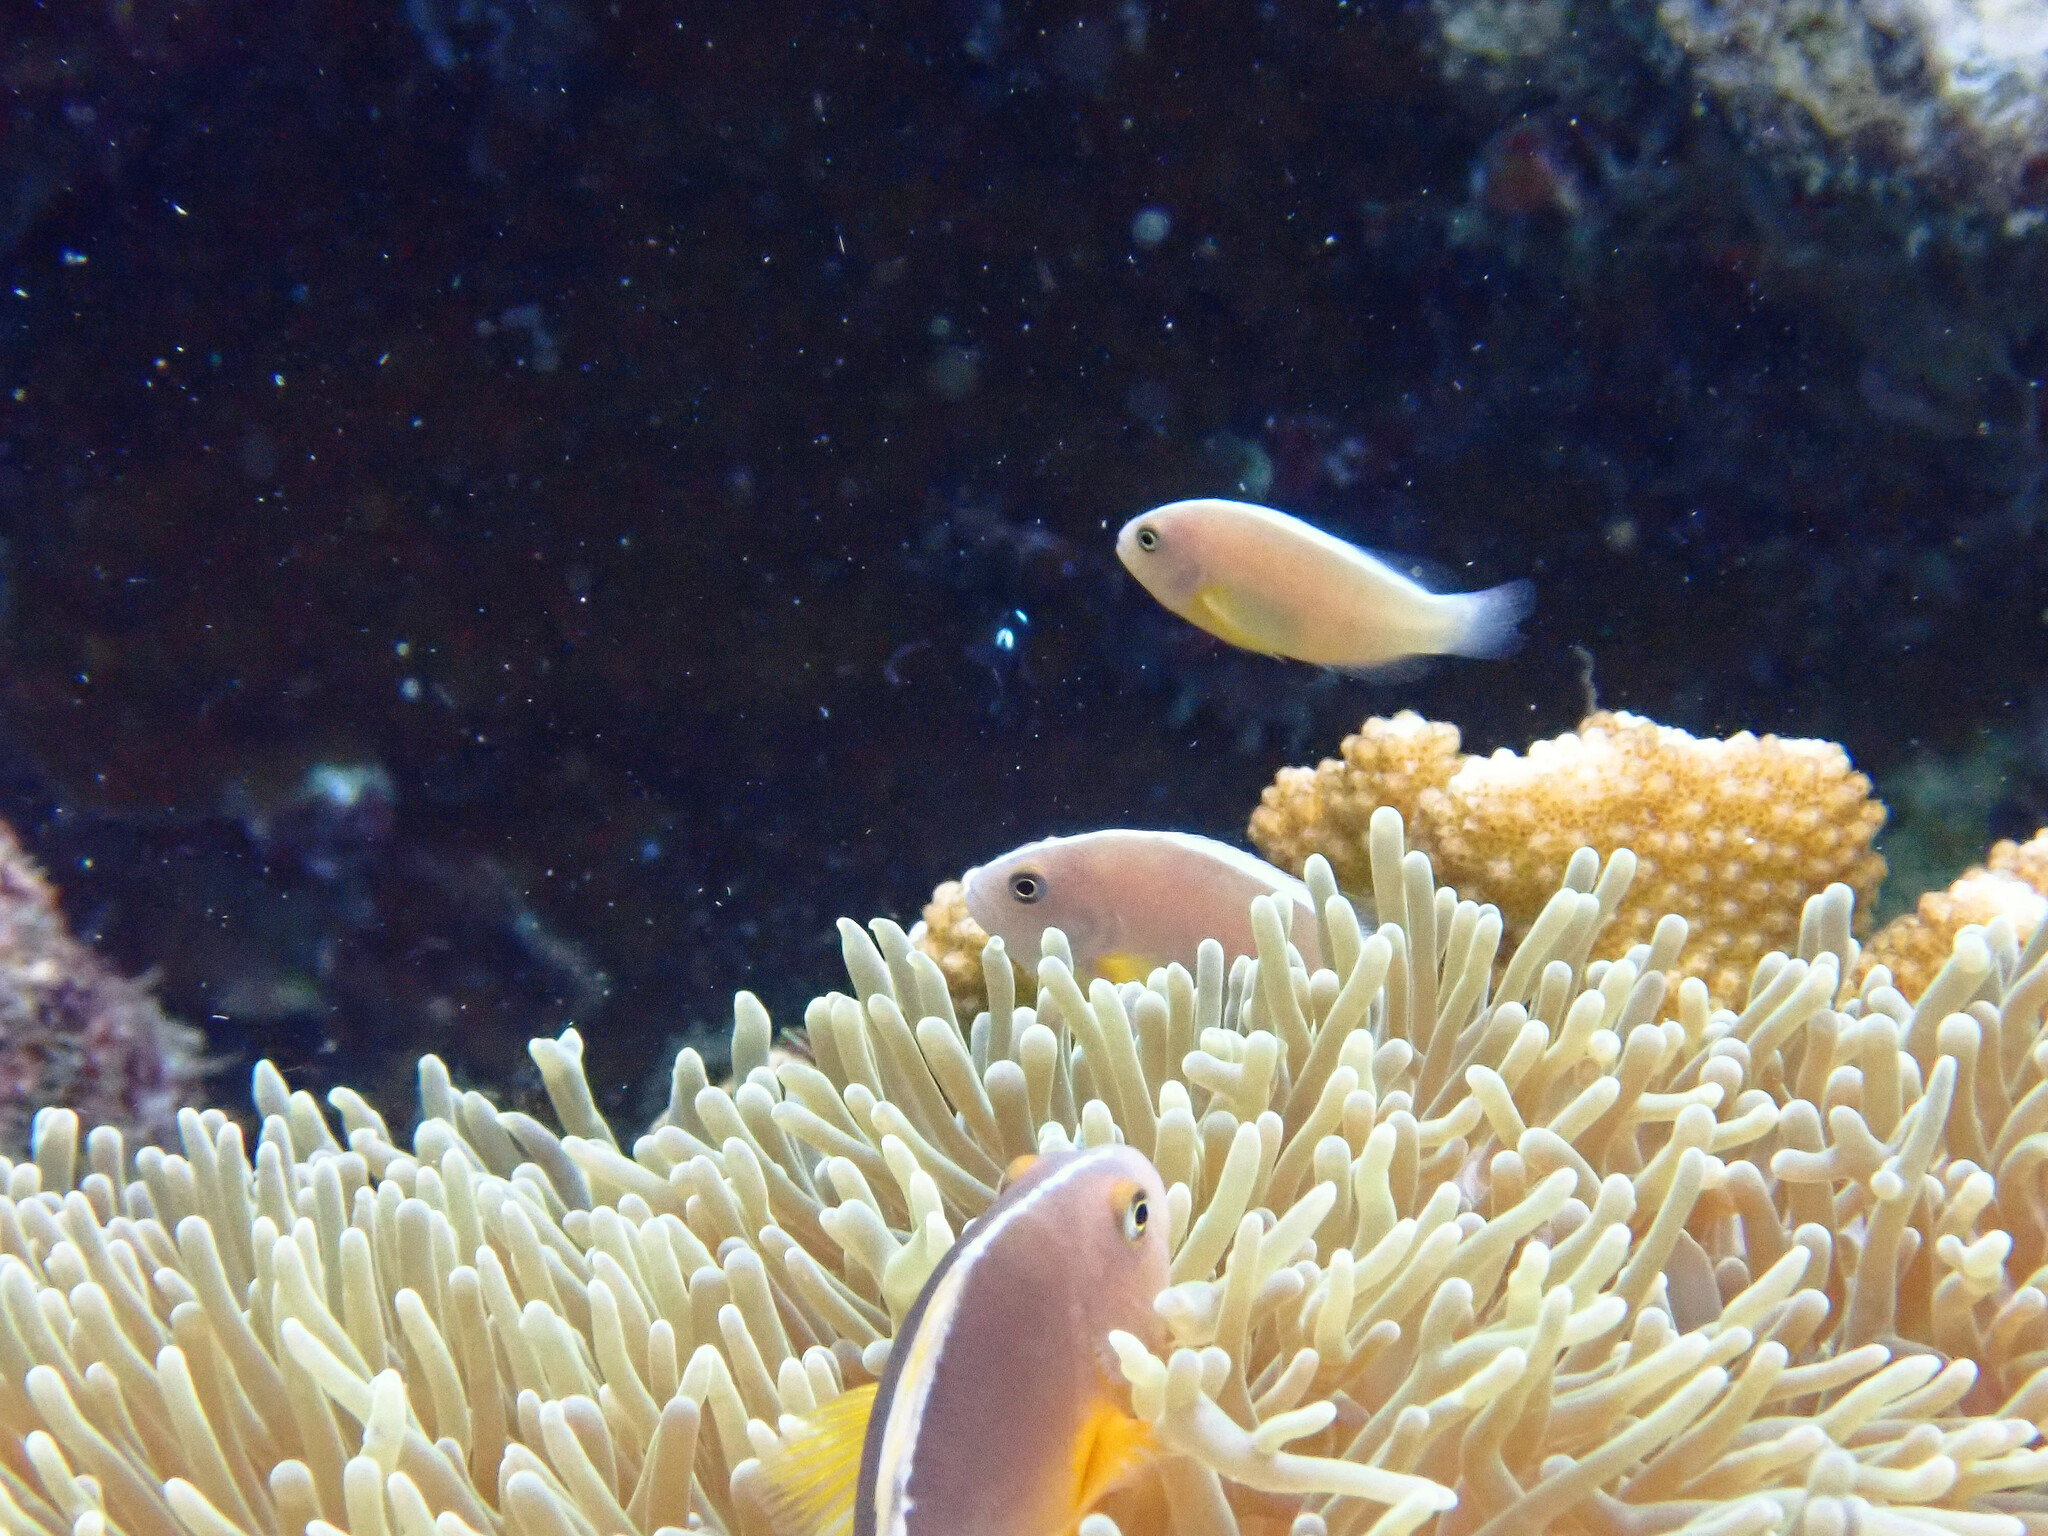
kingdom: Animalia
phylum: Chordata
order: Perciformes
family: Pomacentridae
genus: Amphiprion
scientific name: Amphiprion akallopisos
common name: Skunk clownfish
